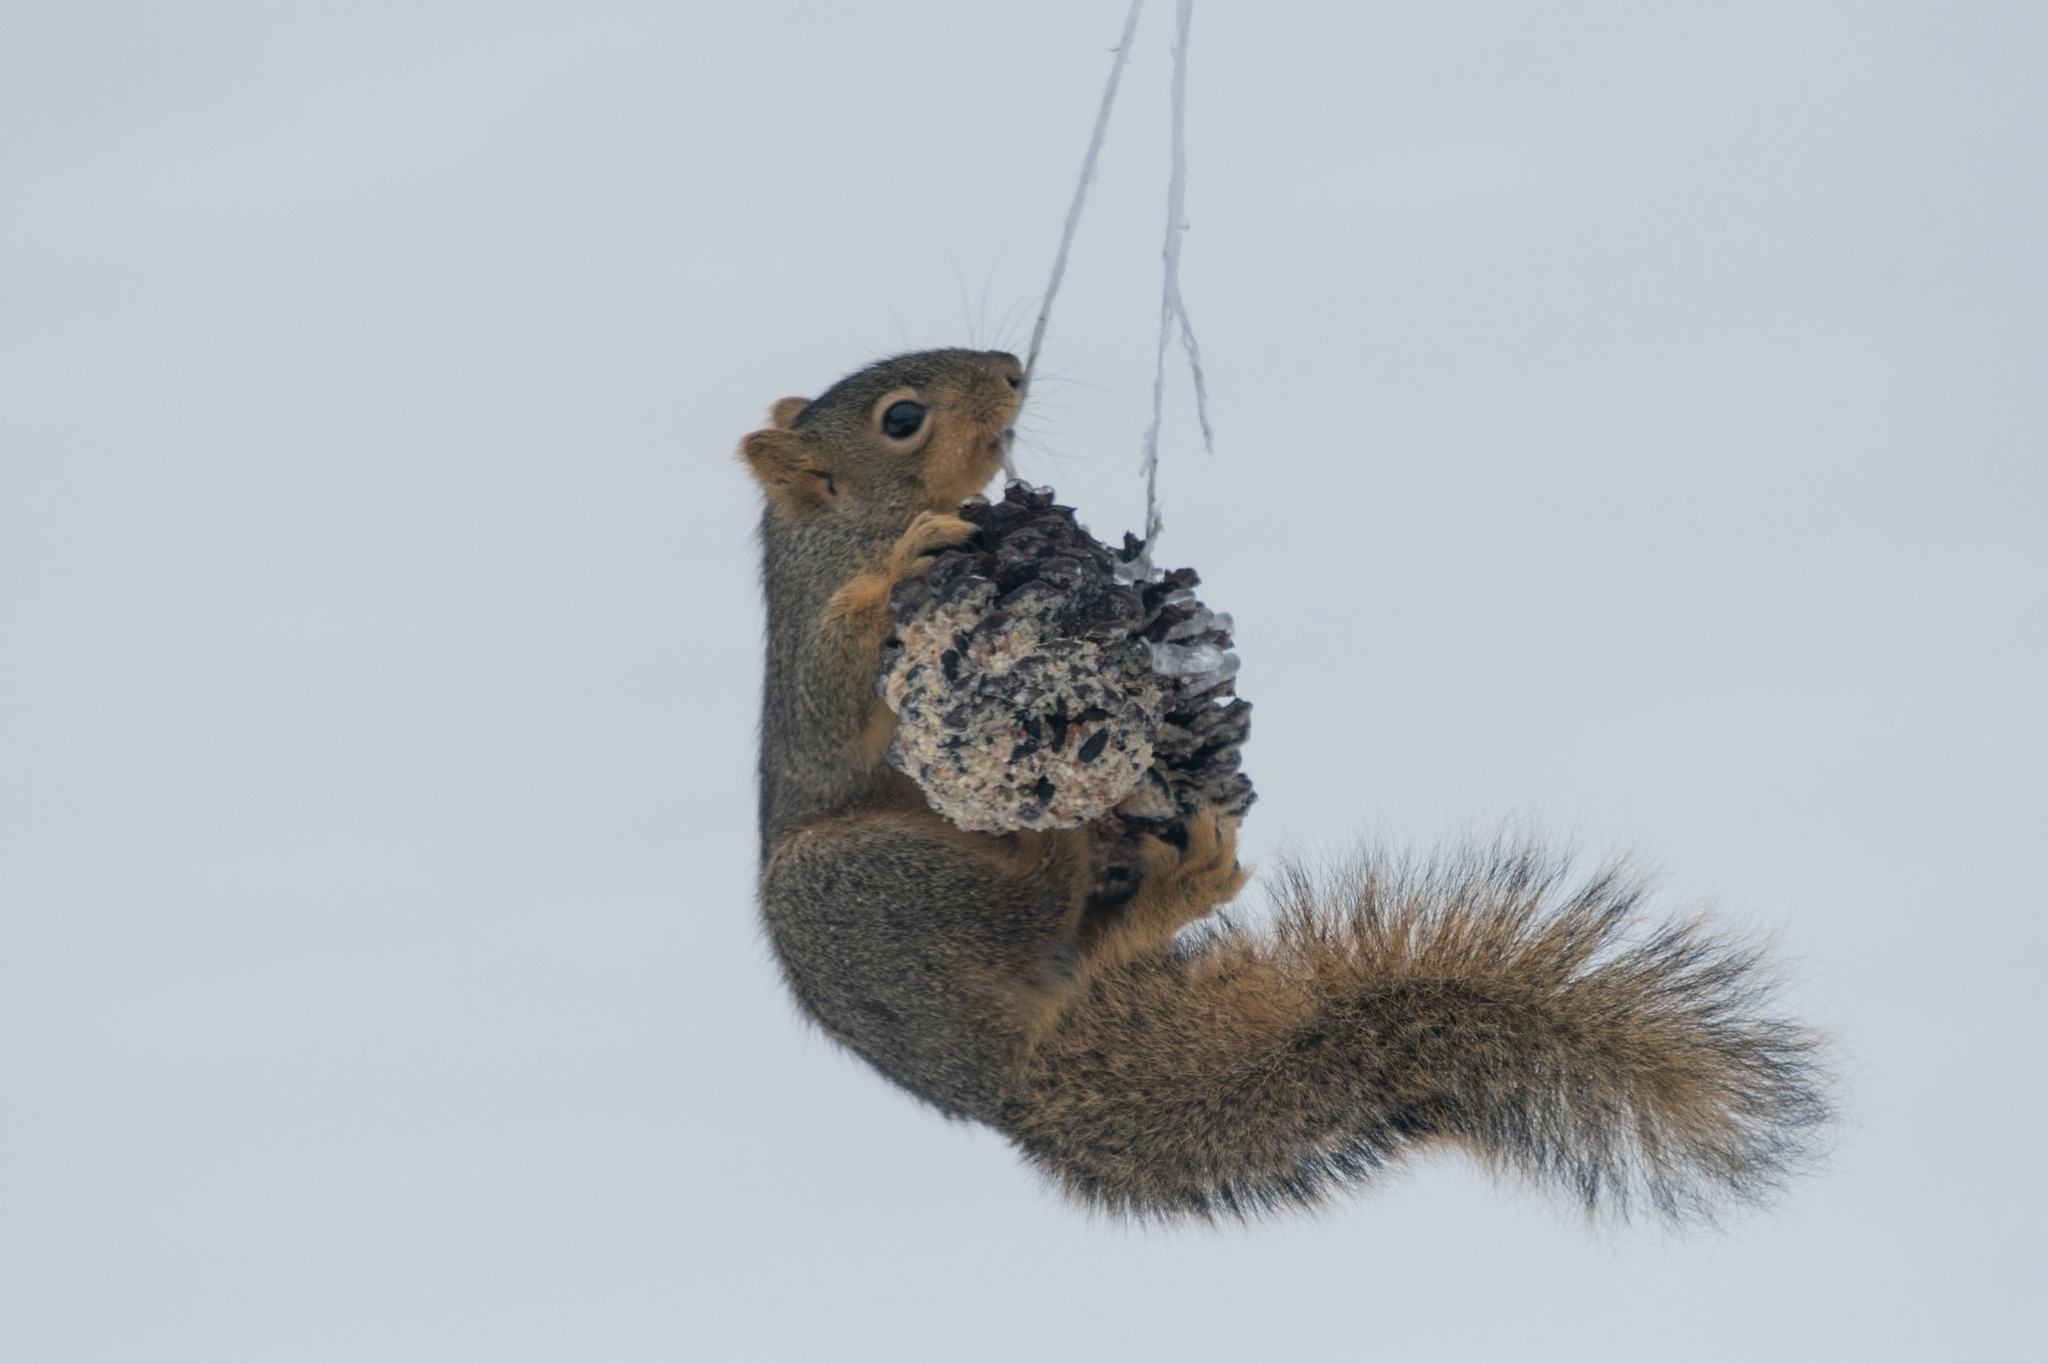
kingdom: Animalia
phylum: Chordata
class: Mammalia
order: Rodentia
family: Sciuridae
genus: Sciurus
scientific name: Sciurus niger
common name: Fox squirrel
